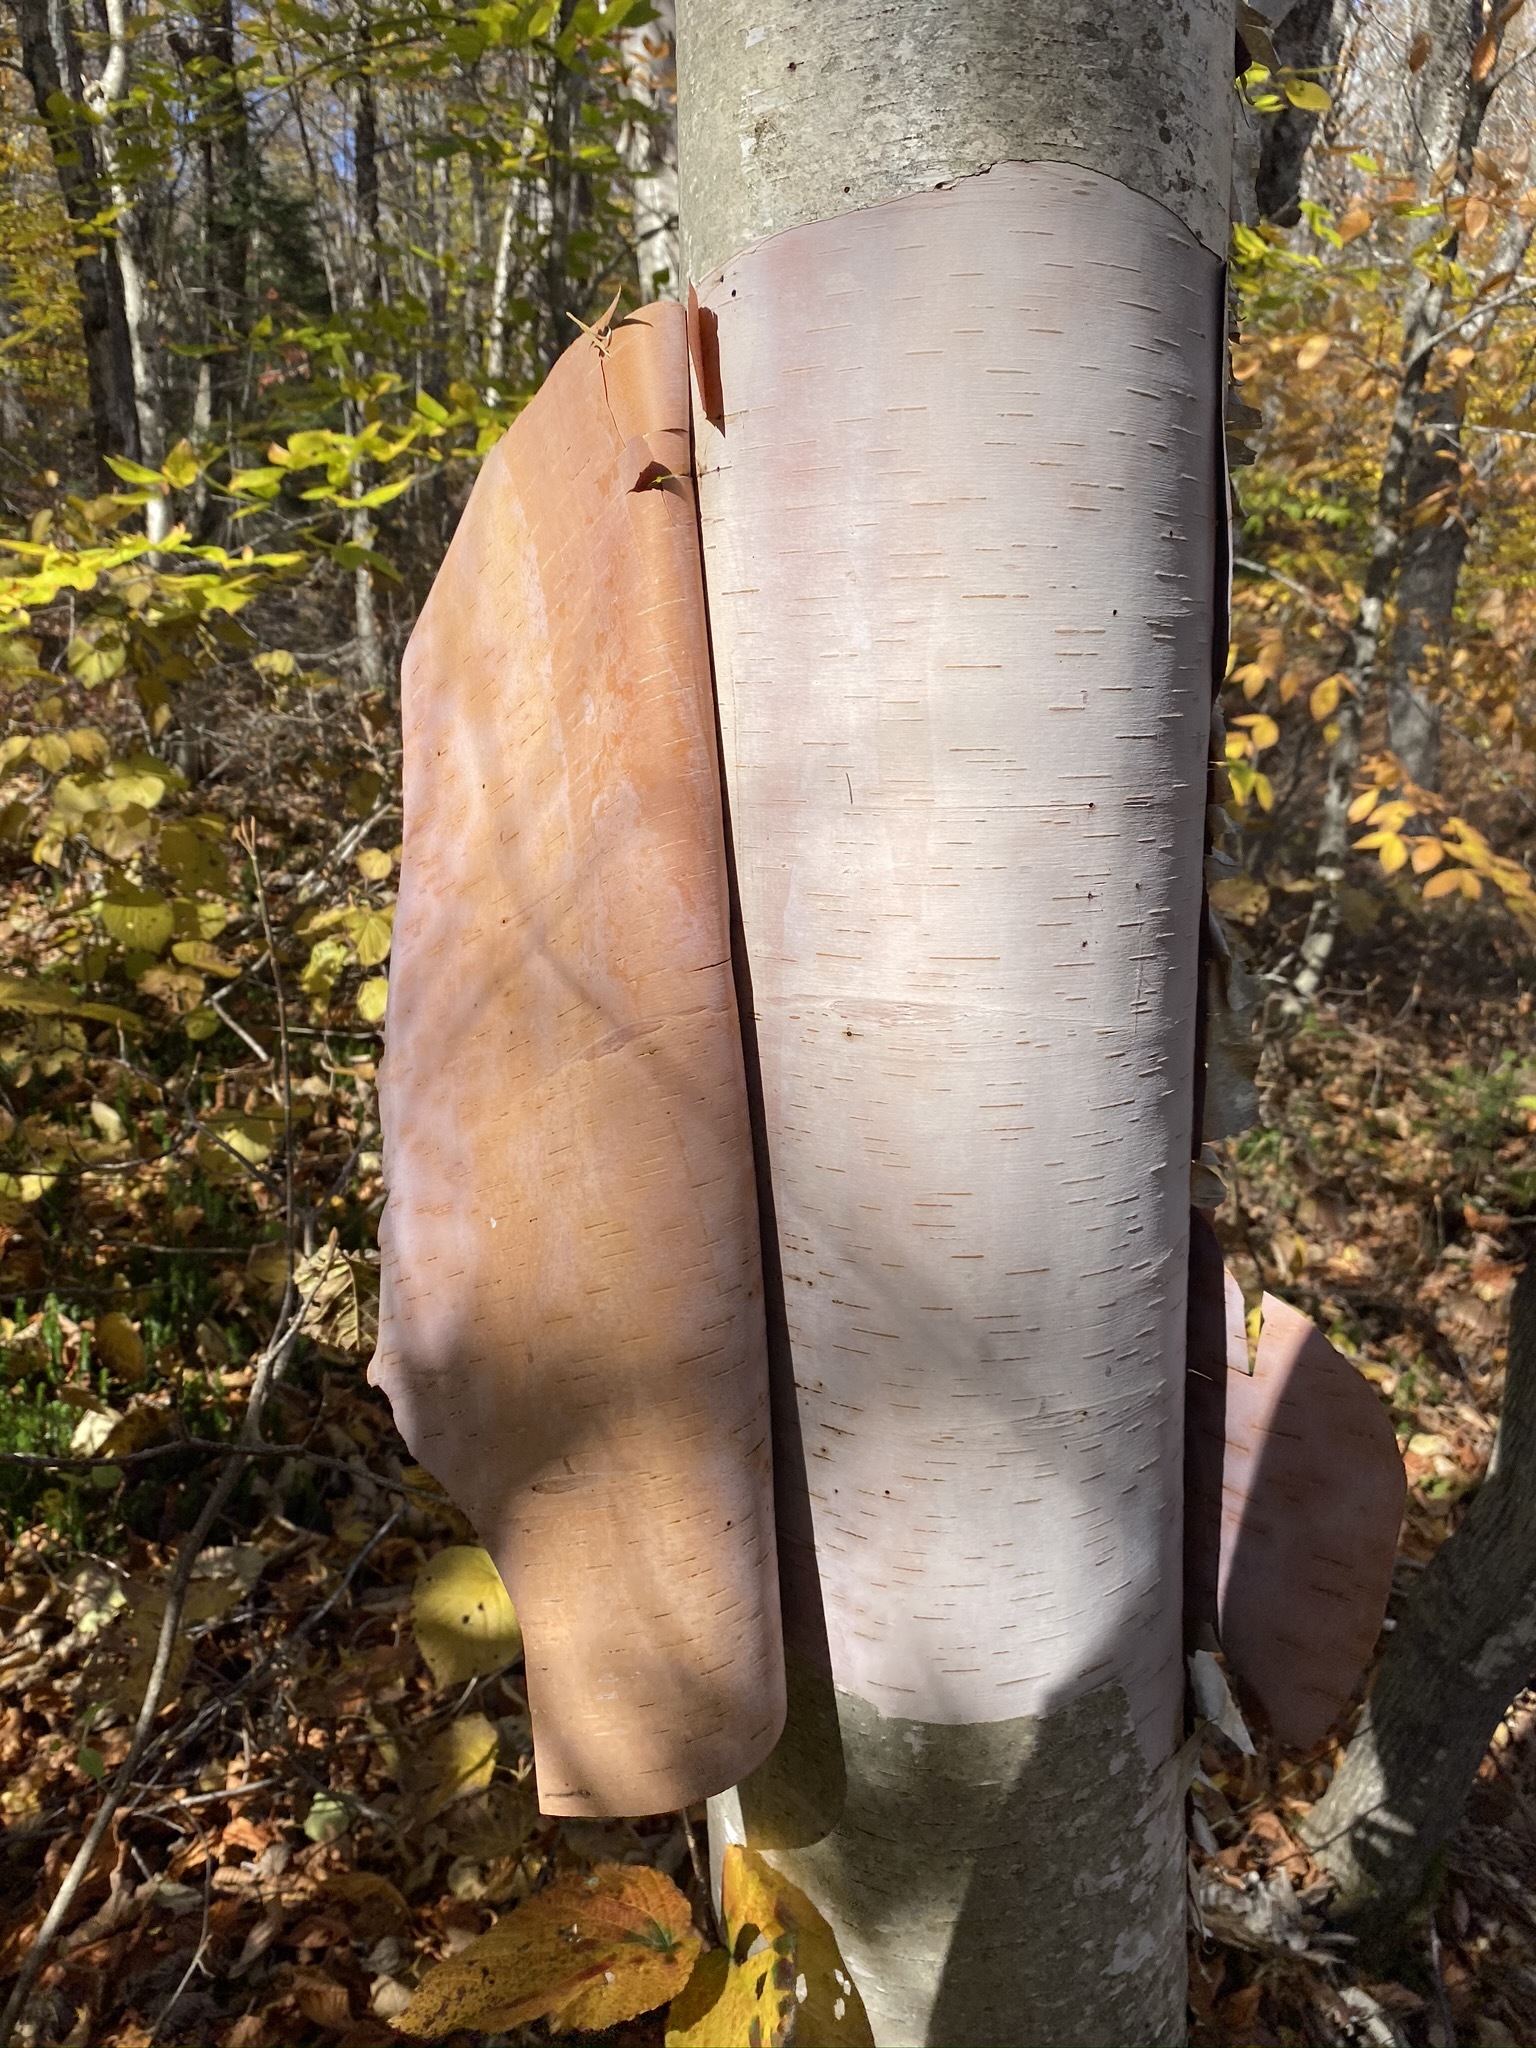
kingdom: Plantae
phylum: Tracheophyta
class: Magnoliopsida
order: Fagales
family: Betulaceae
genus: Betula
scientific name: Betula papyrifera
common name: Paper birch
